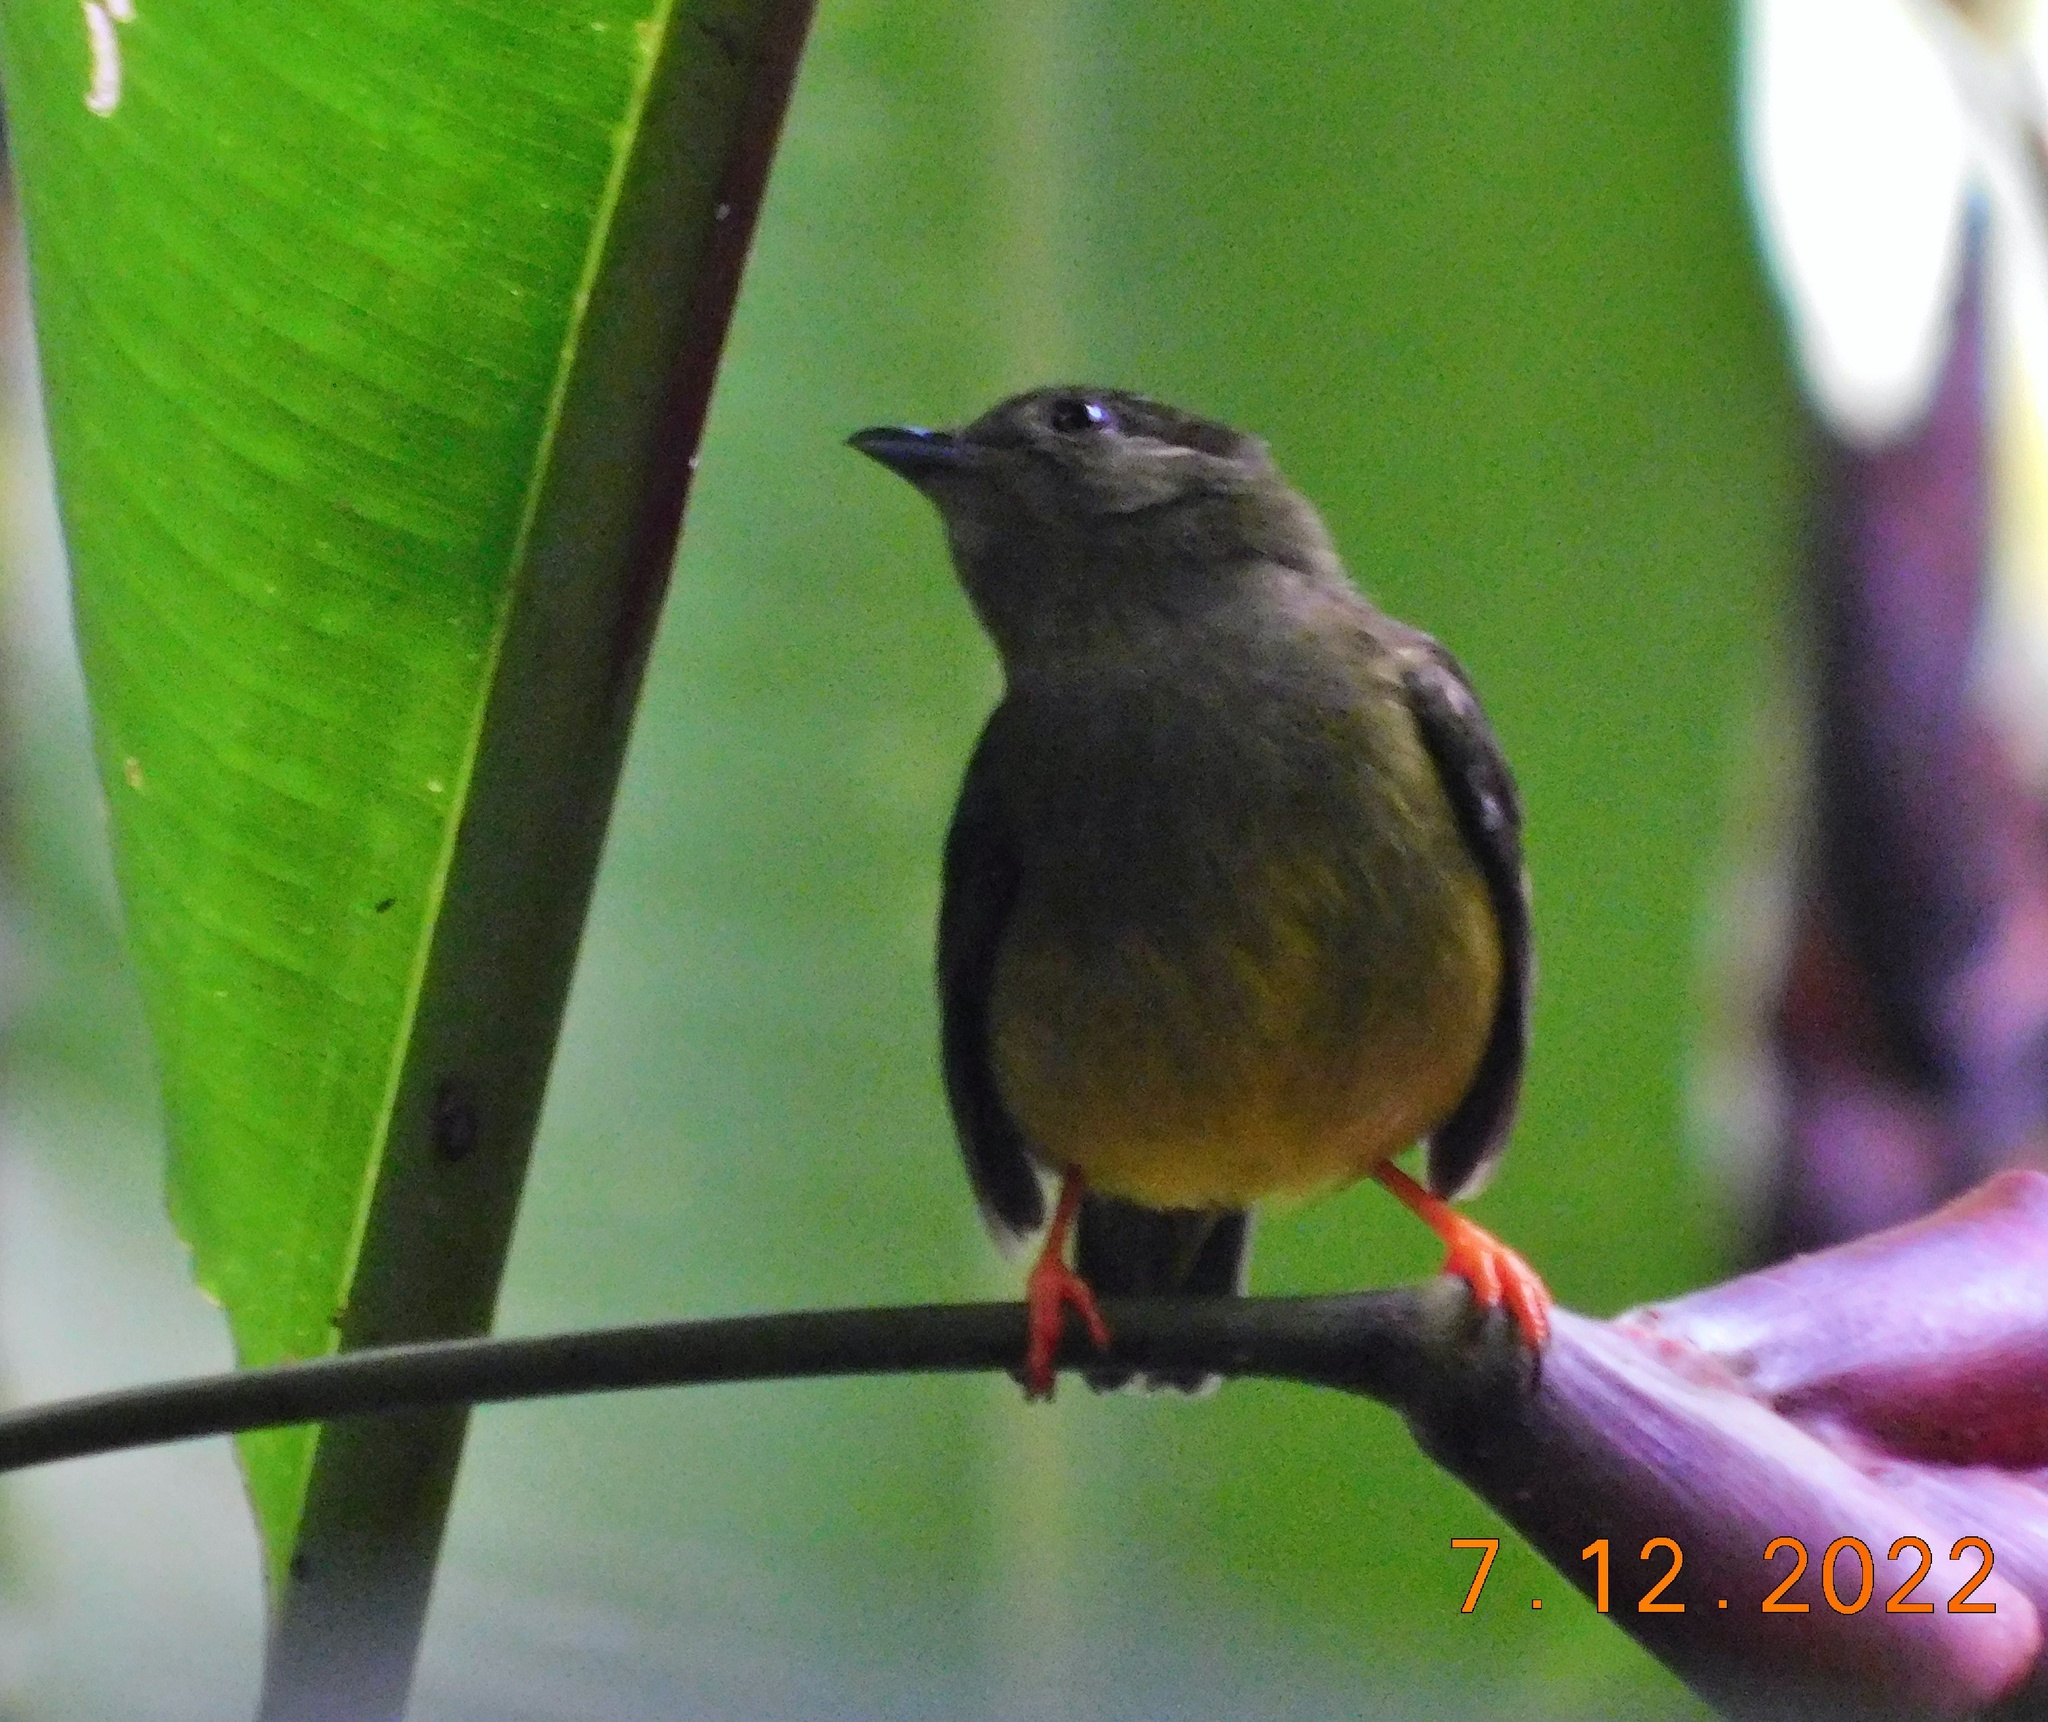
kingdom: Animalia
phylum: Chordata
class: Aves
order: Passeriformes
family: Pipridae
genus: Manacus
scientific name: Manacus candei
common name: White-collared manakin
